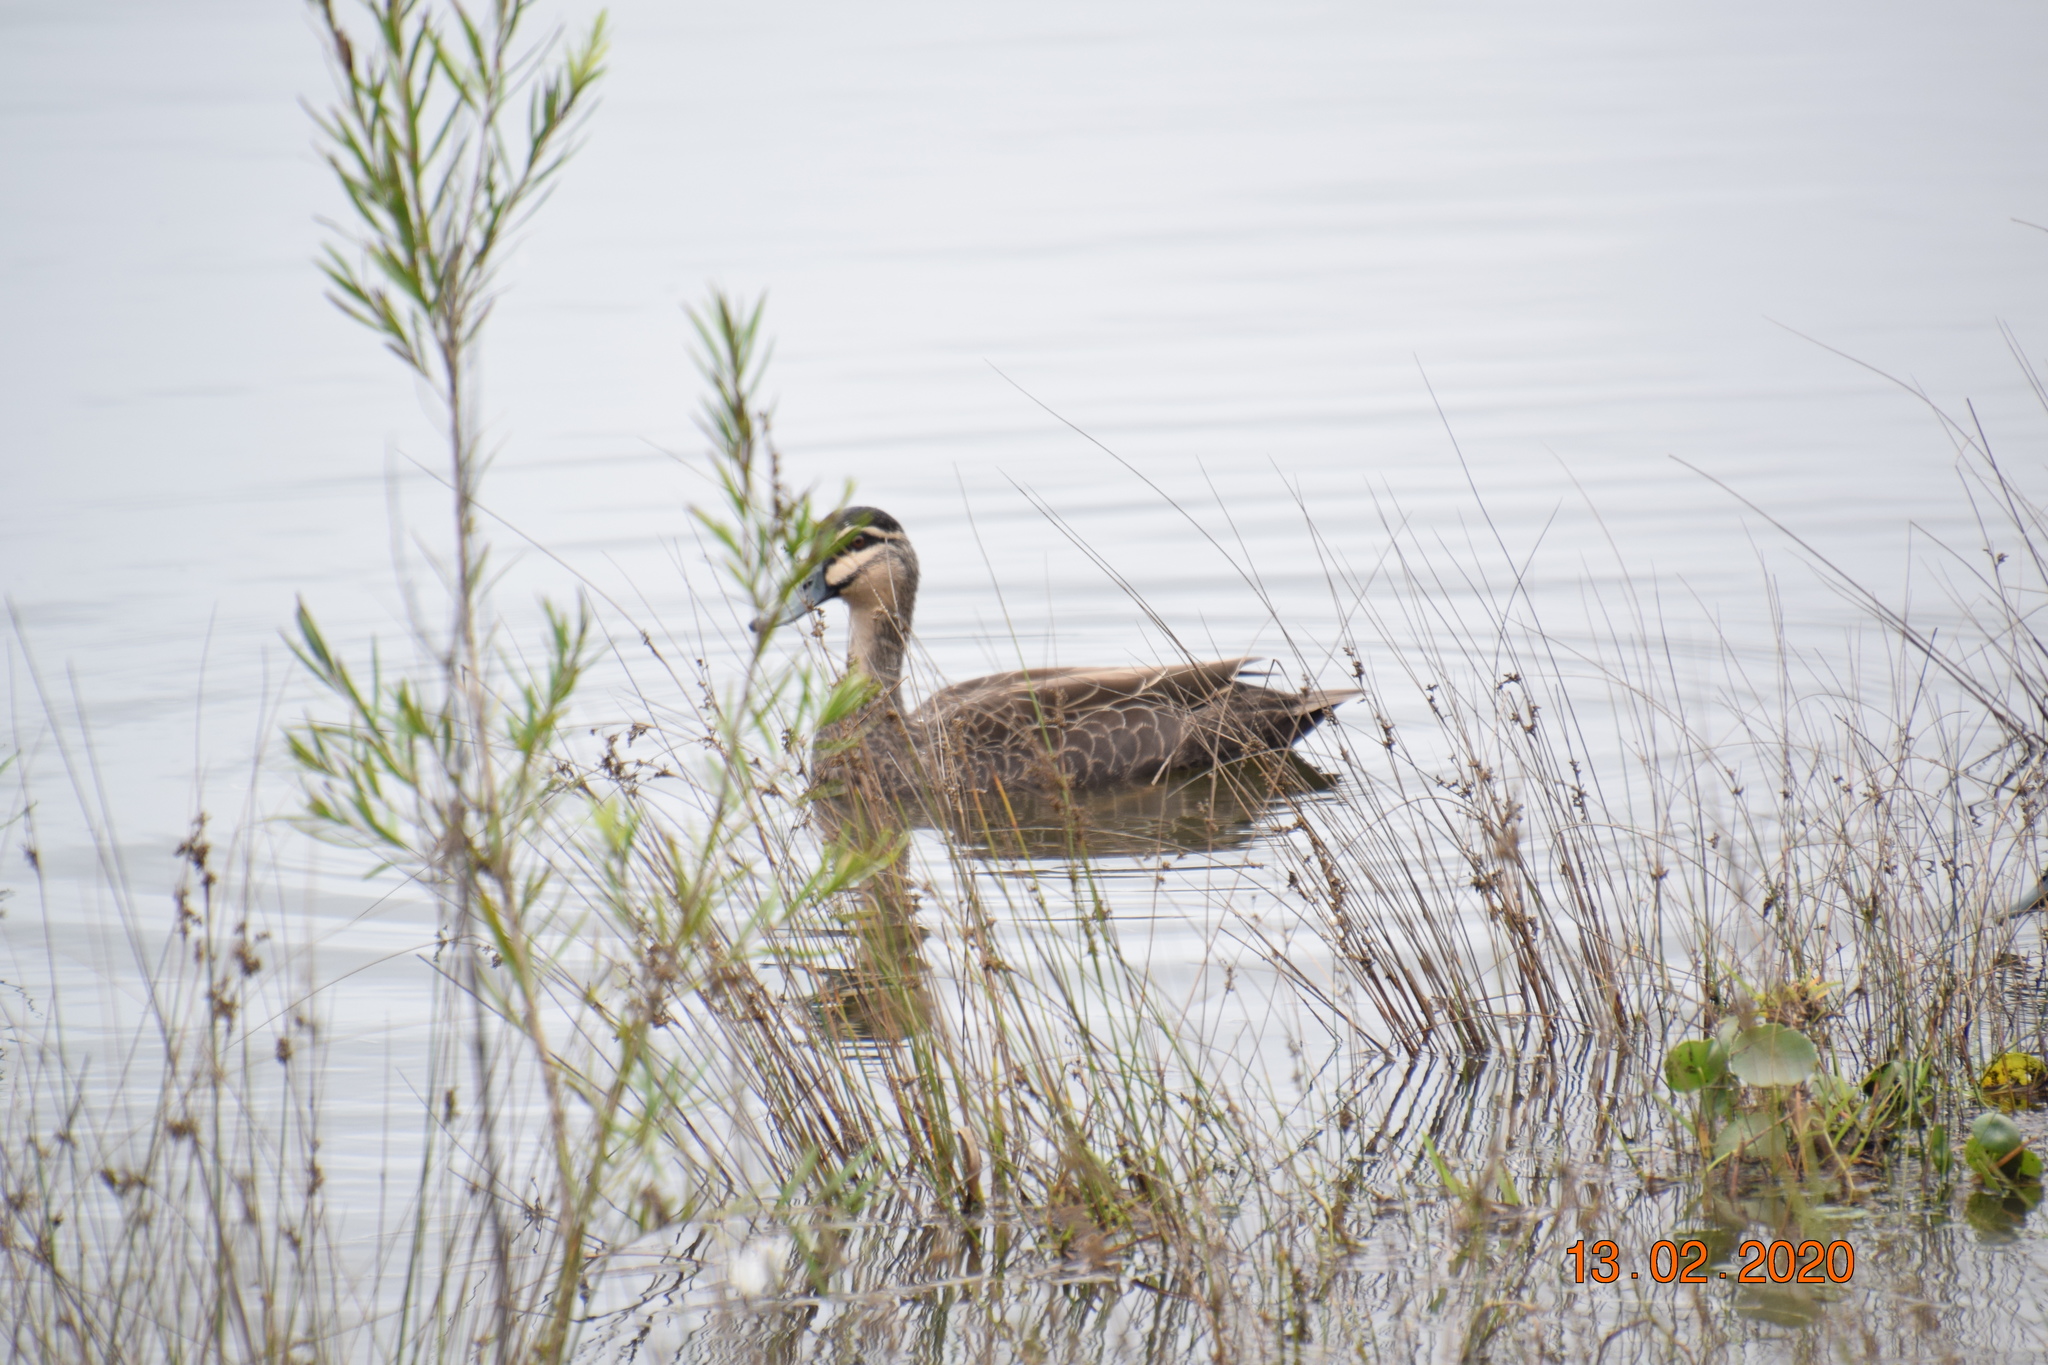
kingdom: Animalia
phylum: Chordata
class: Aves
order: Anseriformes
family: Anatidae
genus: Anas
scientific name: Anas superciliosa
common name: Pacific black duck
